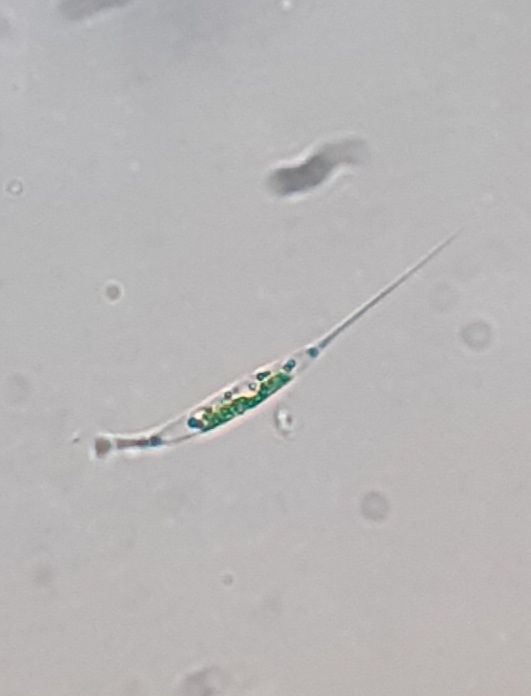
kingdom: Plantae
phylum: Chlorophyta
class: Chlorophyceae
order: Sphaeropleales
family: Characiaceae
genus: Ankyra
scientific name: Ankyra judayi
